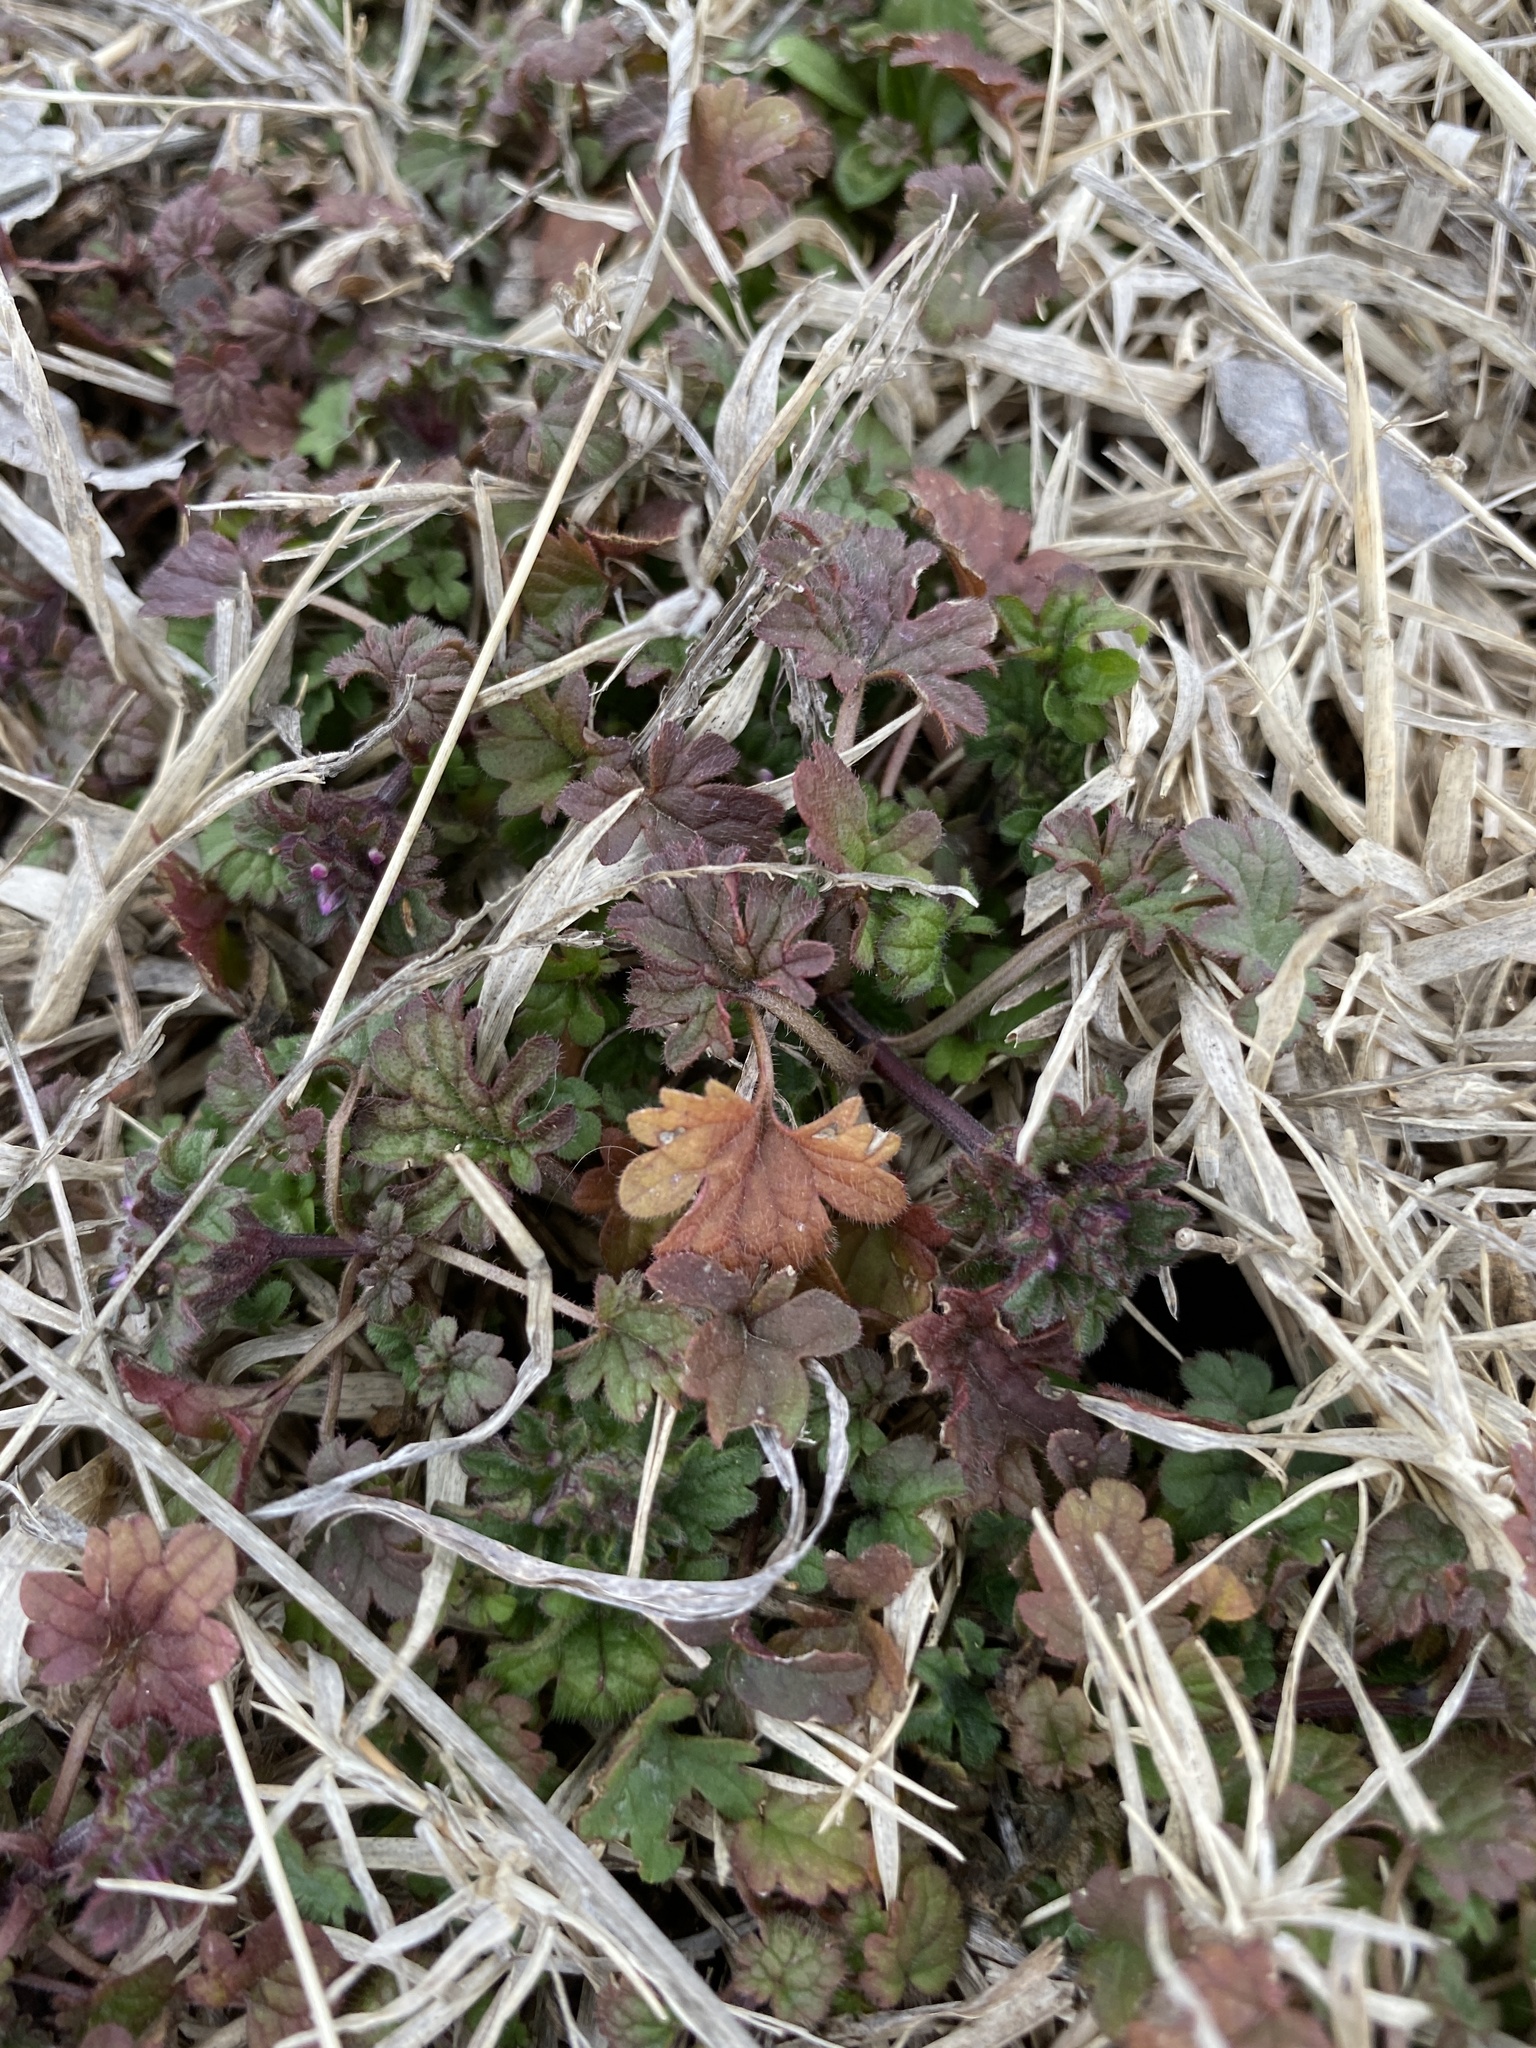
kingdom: Plantae
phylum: Tracheophyta
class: Magnoliopsida
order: Lamiales
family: Lamiaceae
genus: Lamium
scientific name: Lamium amplexicaule
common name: Henbit dead-nettle
